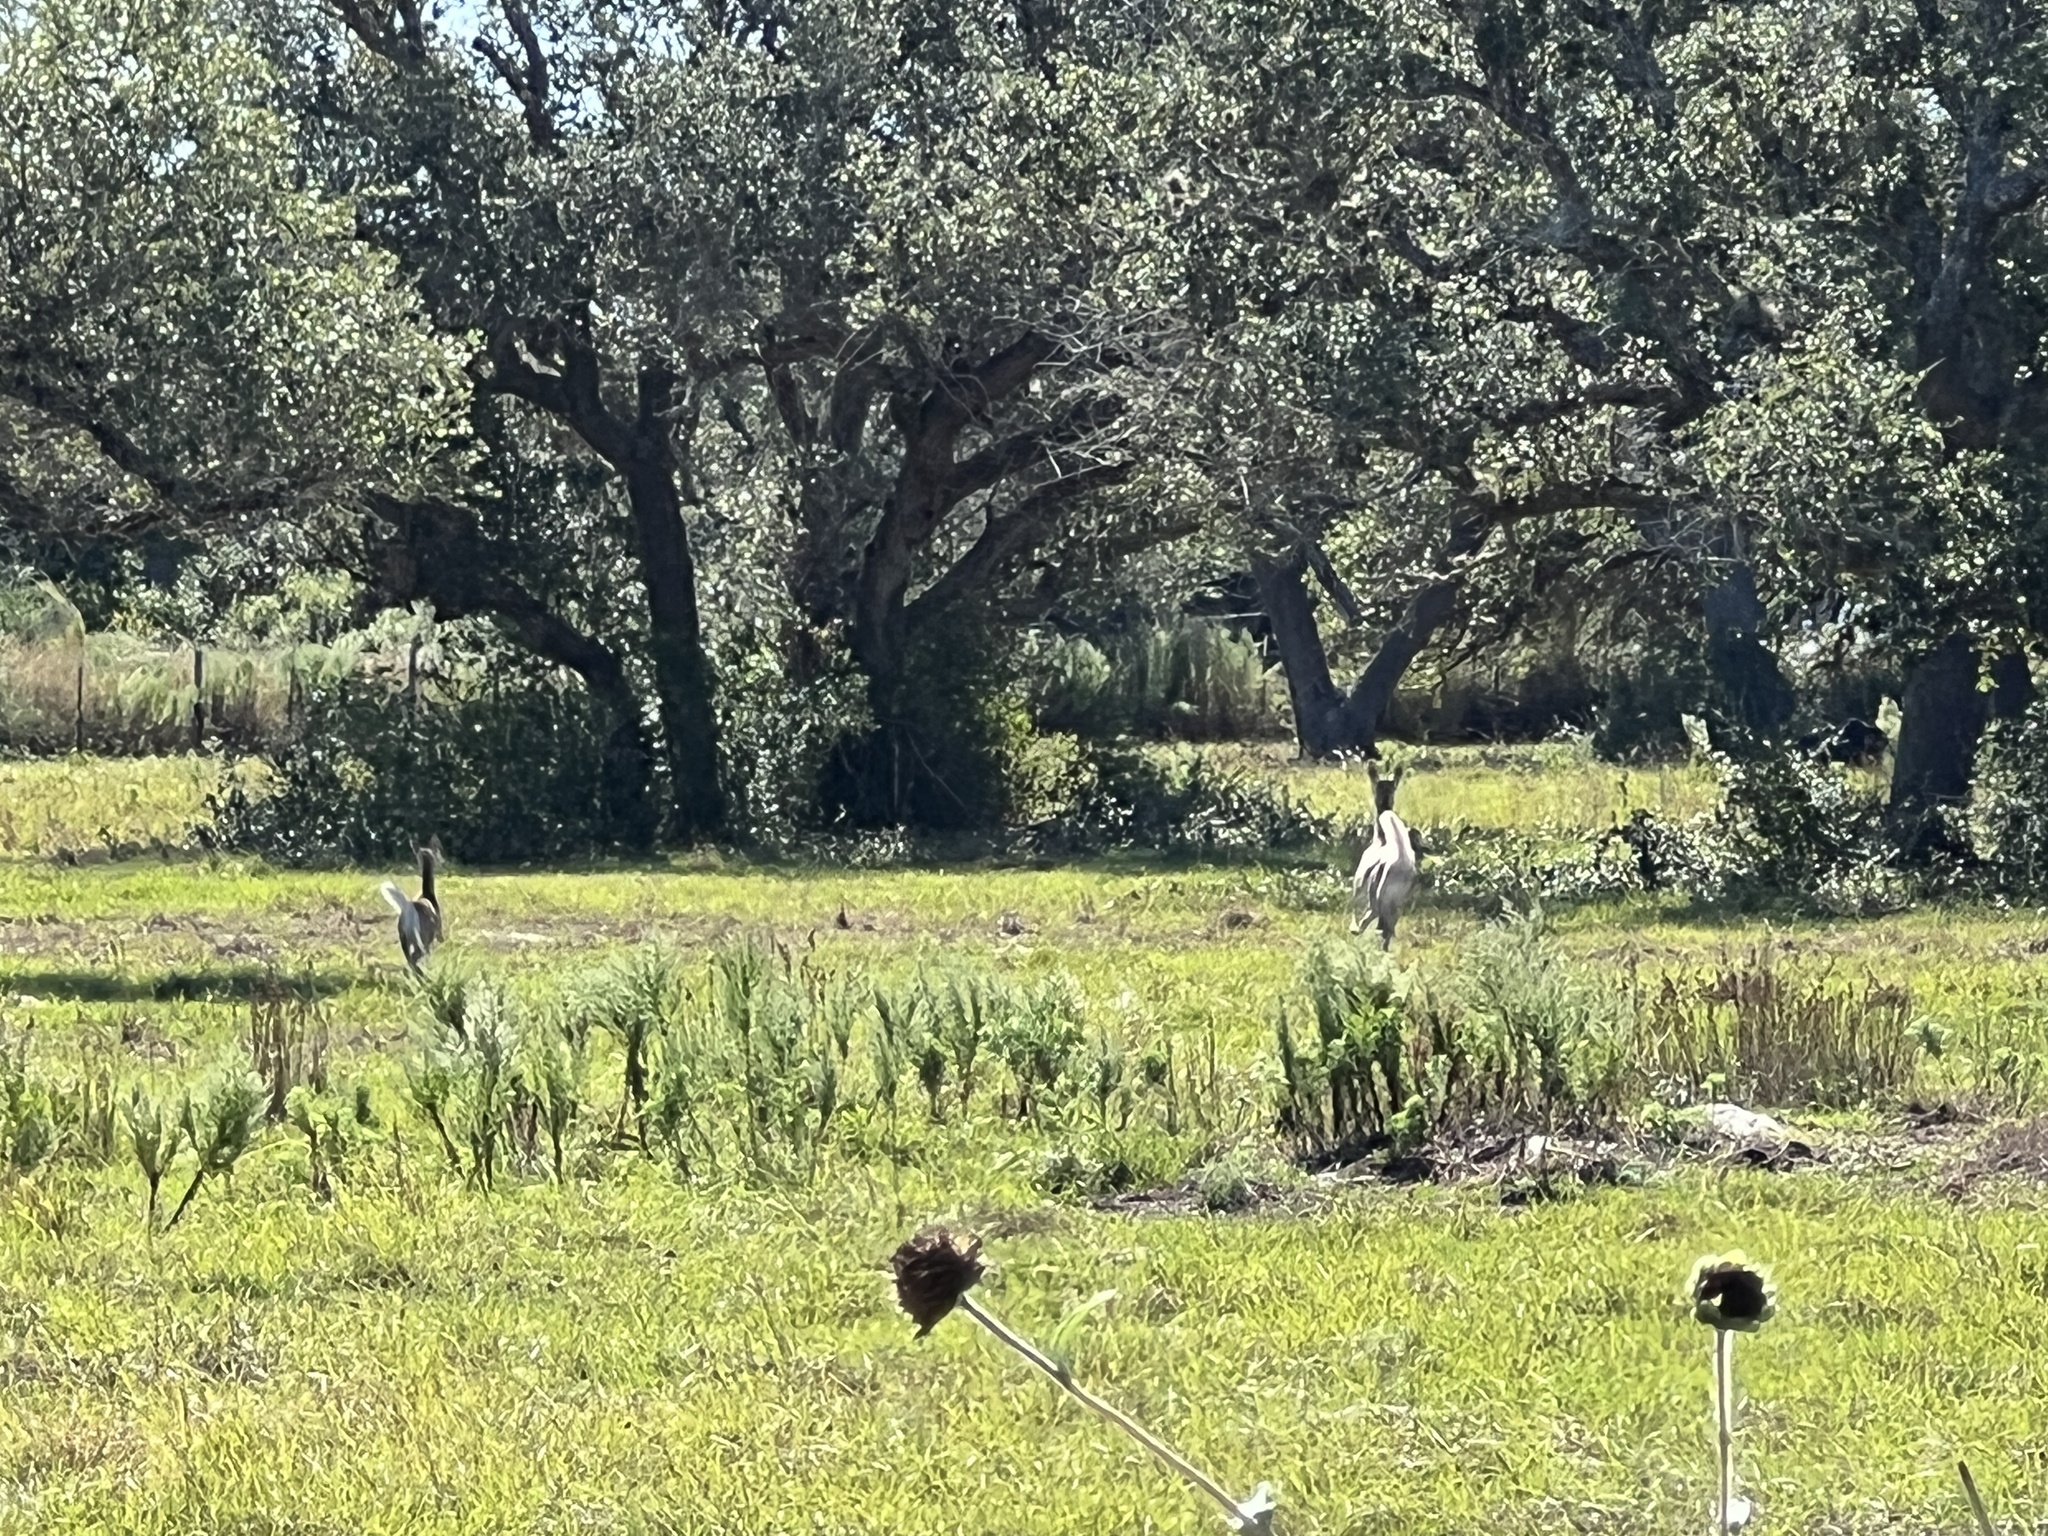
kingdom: Animalia
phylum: Chordata
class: Mammalia
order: Artiodactyla
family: Cervidae
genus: Odocoileus
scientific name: Odocoileus virginianus
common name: White-tailed deer
